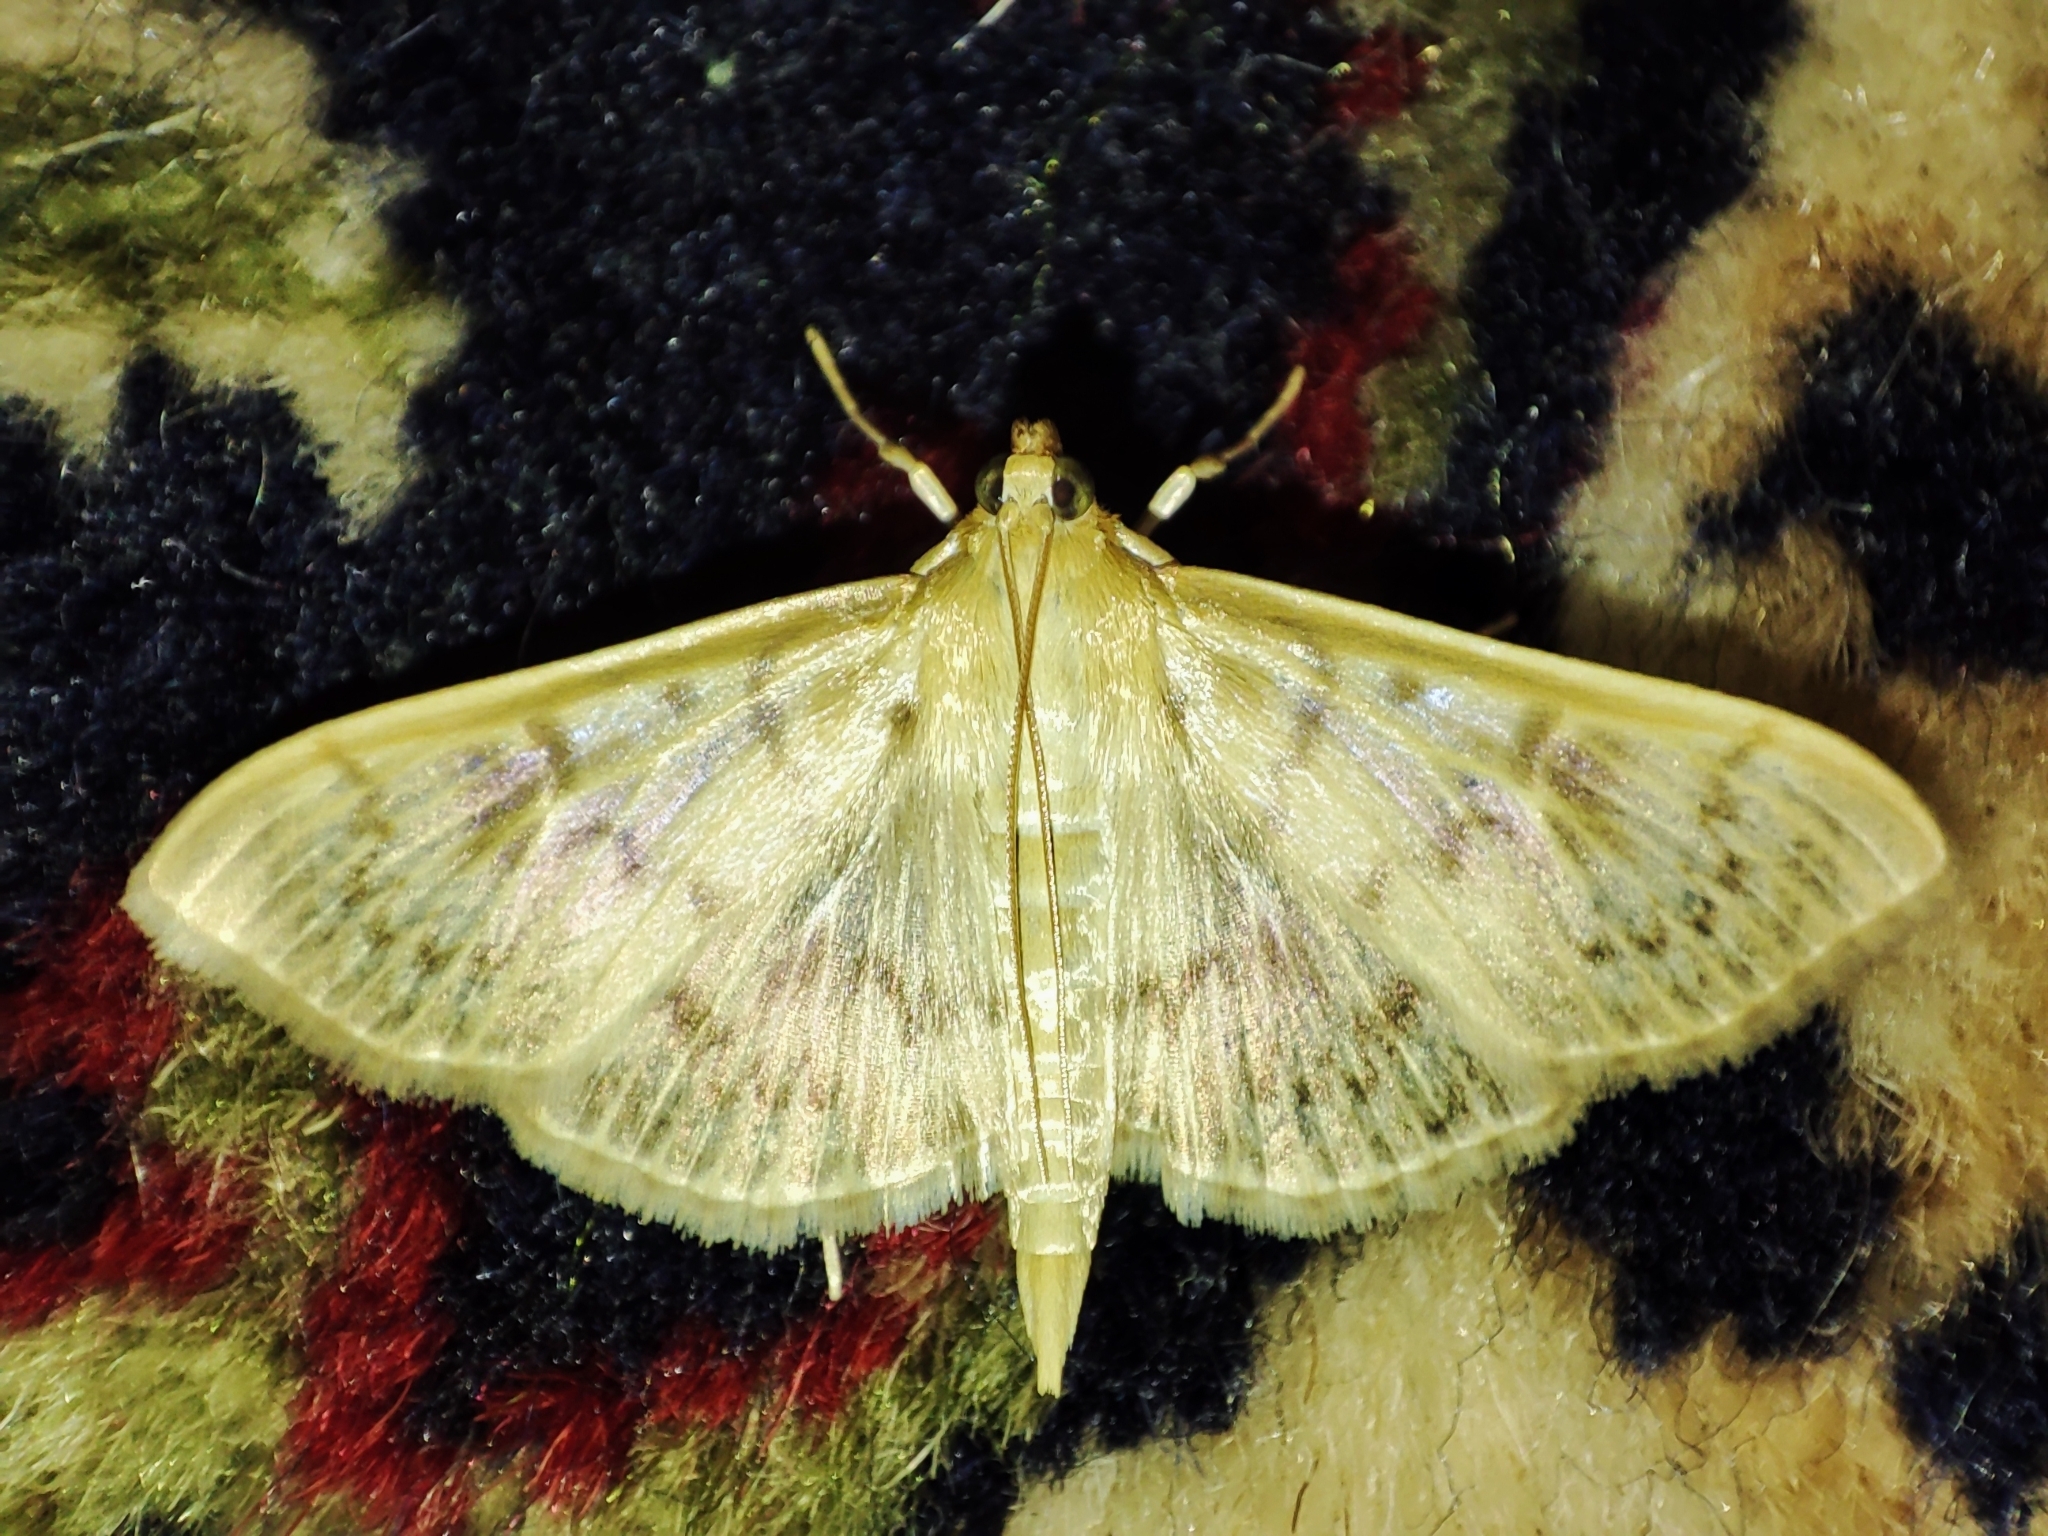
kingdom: Animalia
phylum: Arthropoda
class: Insecta
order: Lepidoptera
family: Crambidae
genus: Patania
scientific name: Patania ruralis
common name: Mother of pearl
